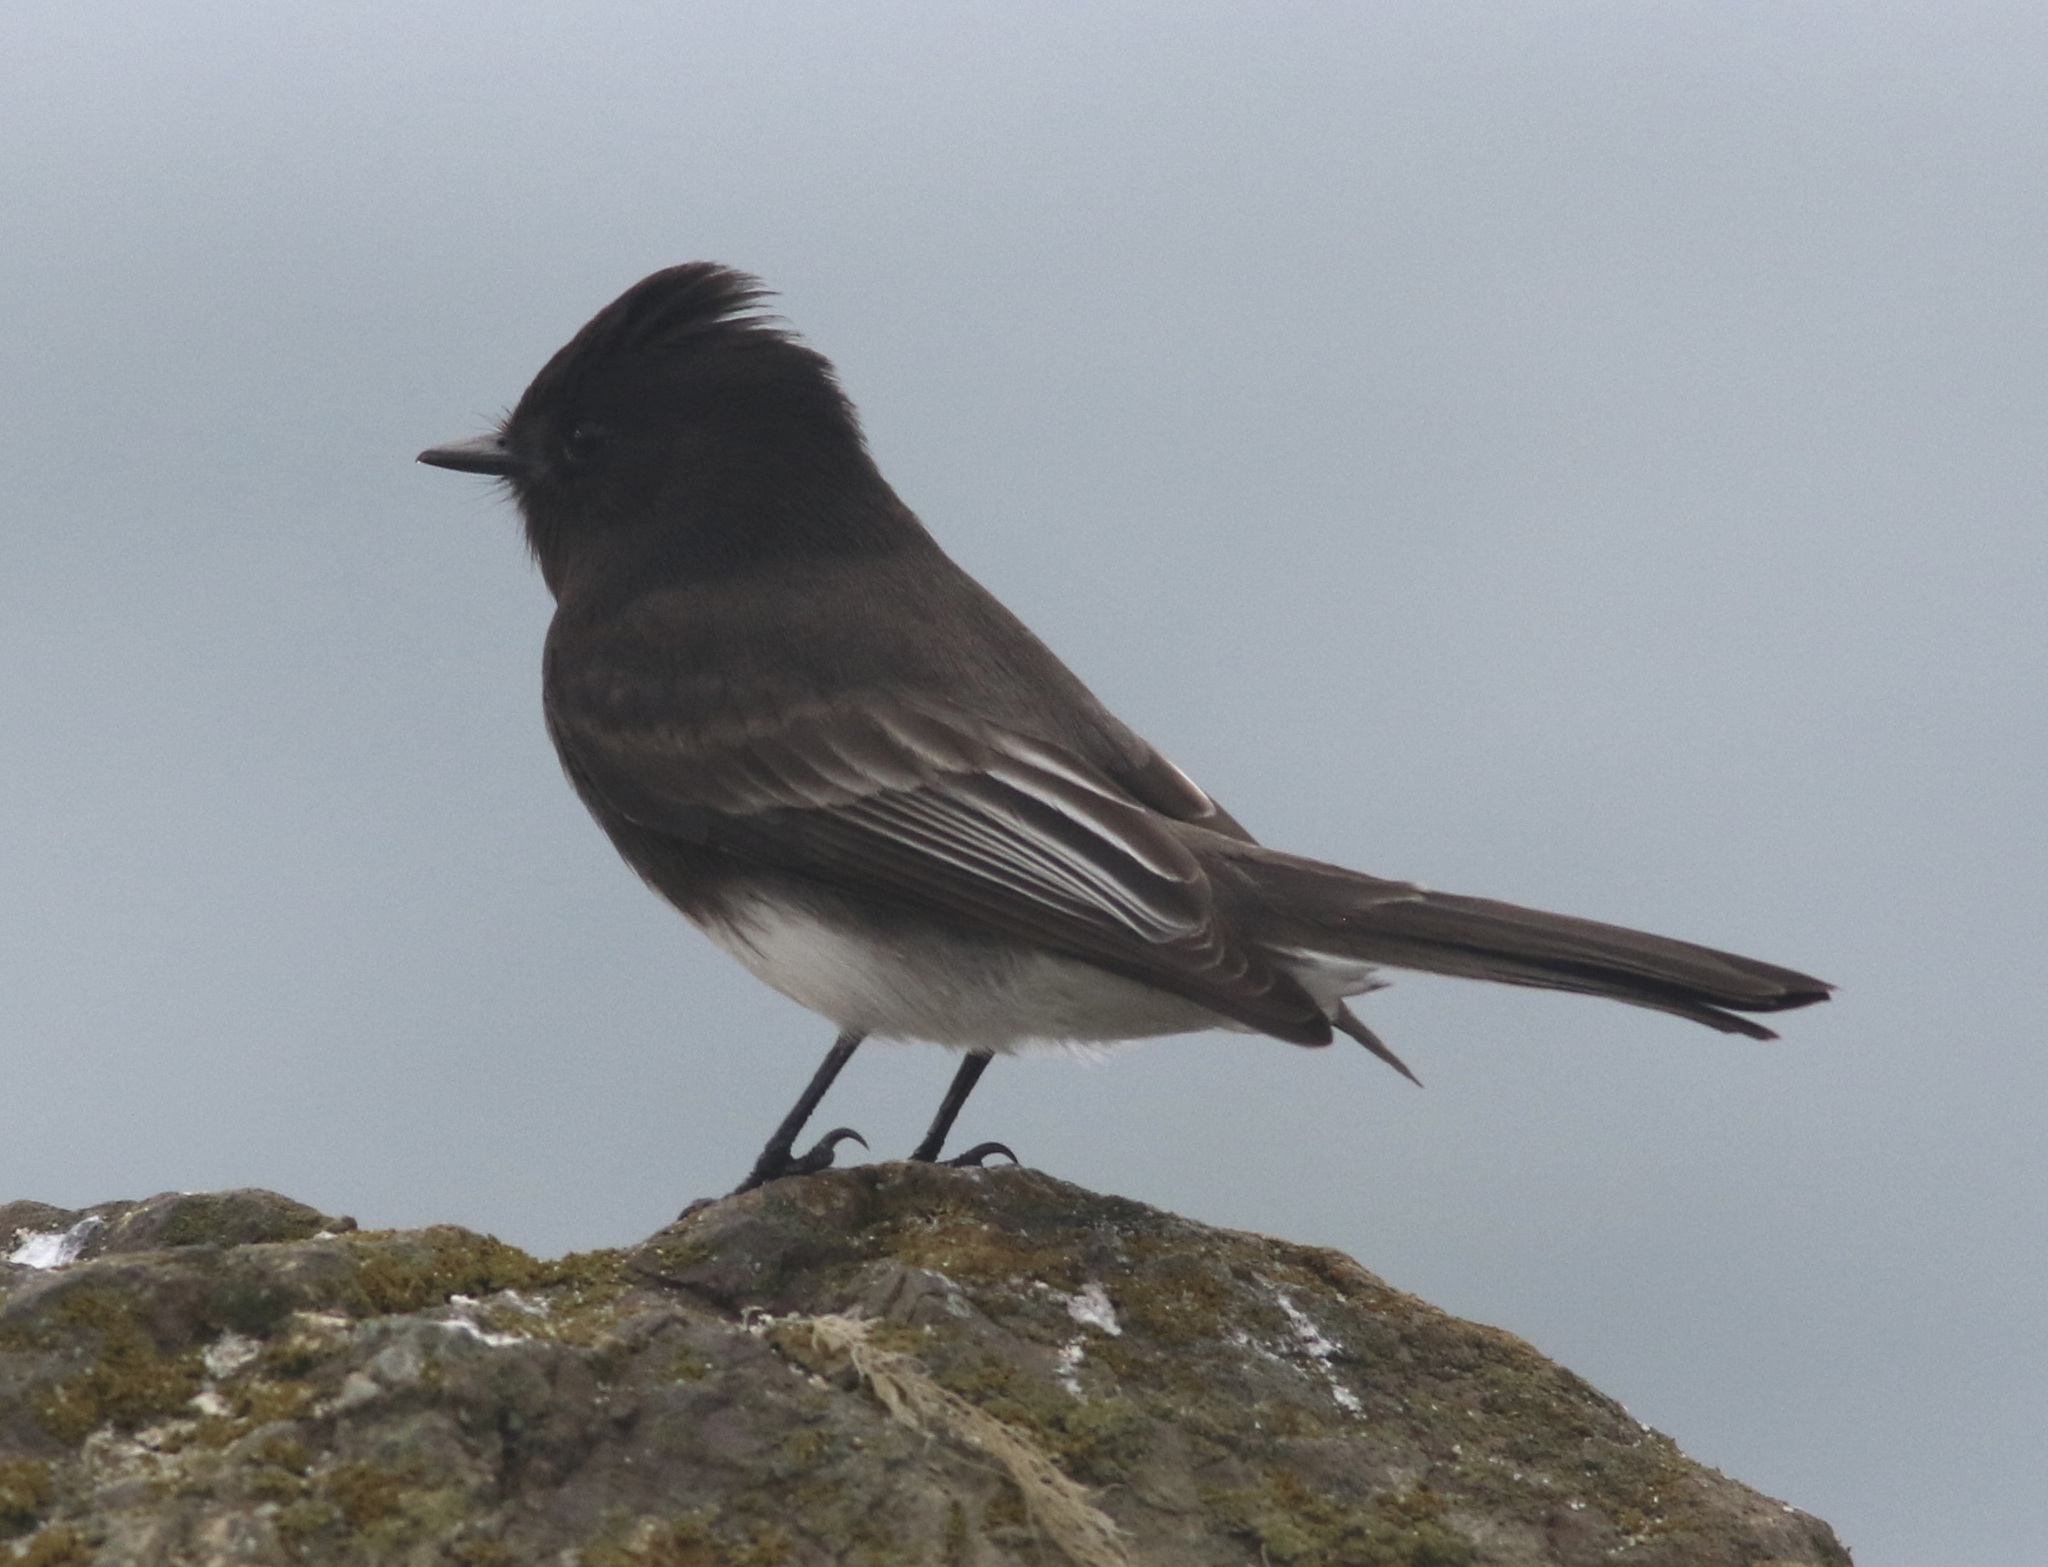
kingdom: Animalia
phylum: Chordata
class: Aves
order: Passeriformes
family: Tyrannidae
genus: Sayornis
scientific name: Sayornis nigricans
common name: Black phoebe
